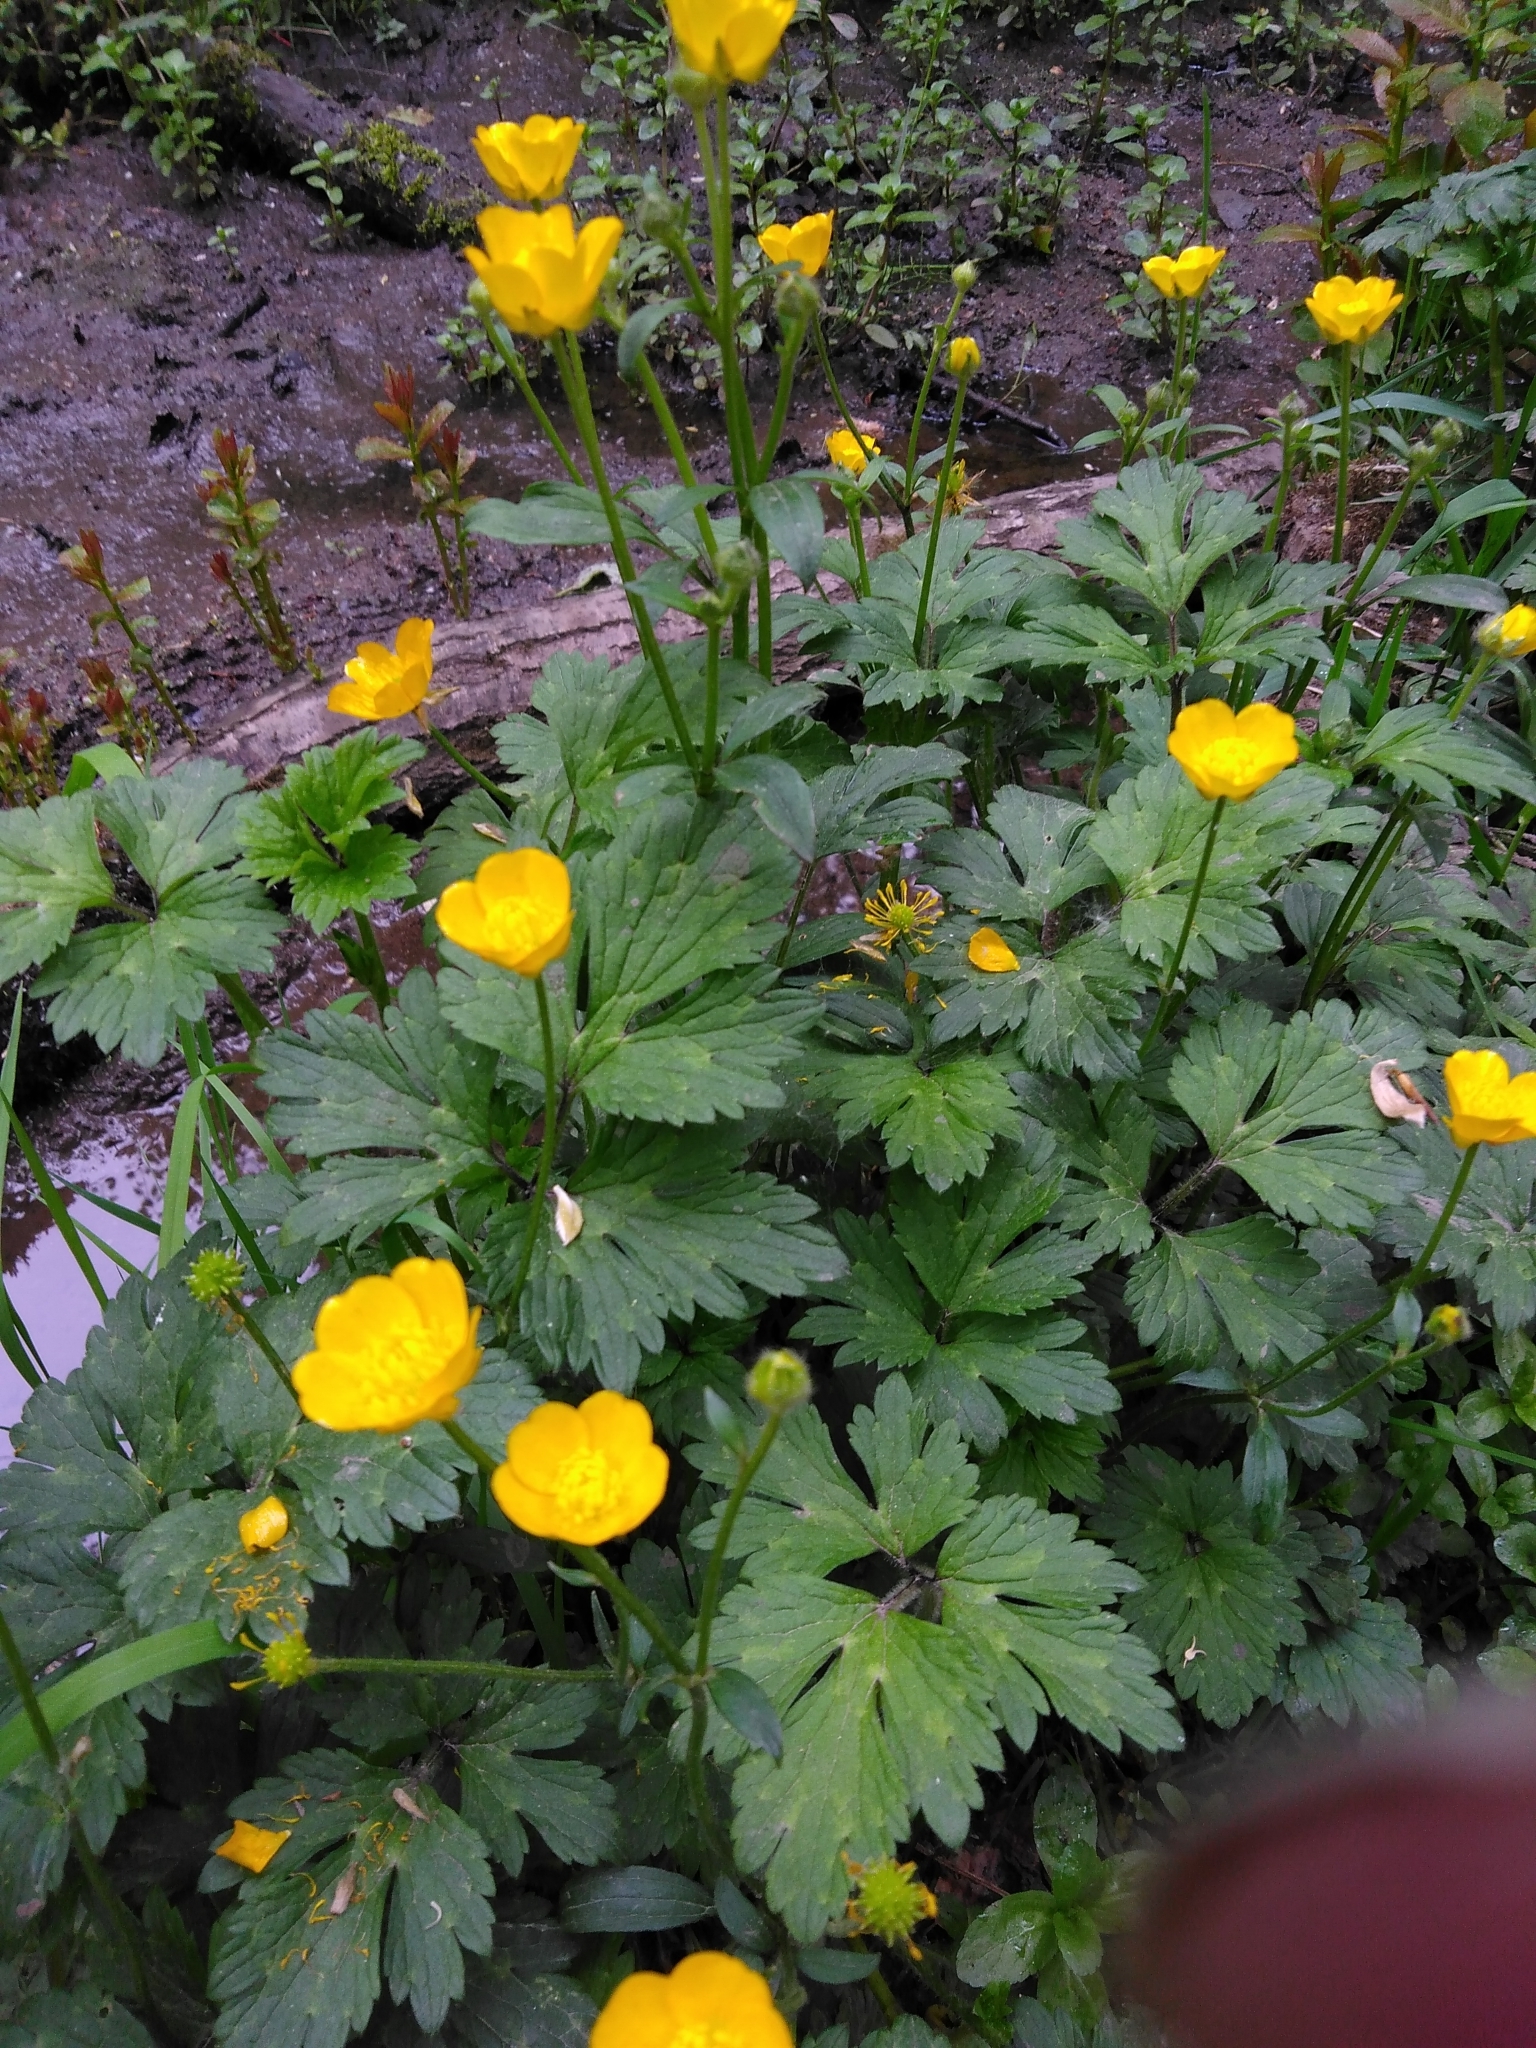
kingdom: Plantae
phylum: Tracheophyta
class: Magnoliopsida
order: Ranunculales
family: Ranunculaceae
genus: Ranunculus
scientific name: Ranunculus repens
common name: Creeping buttercup
